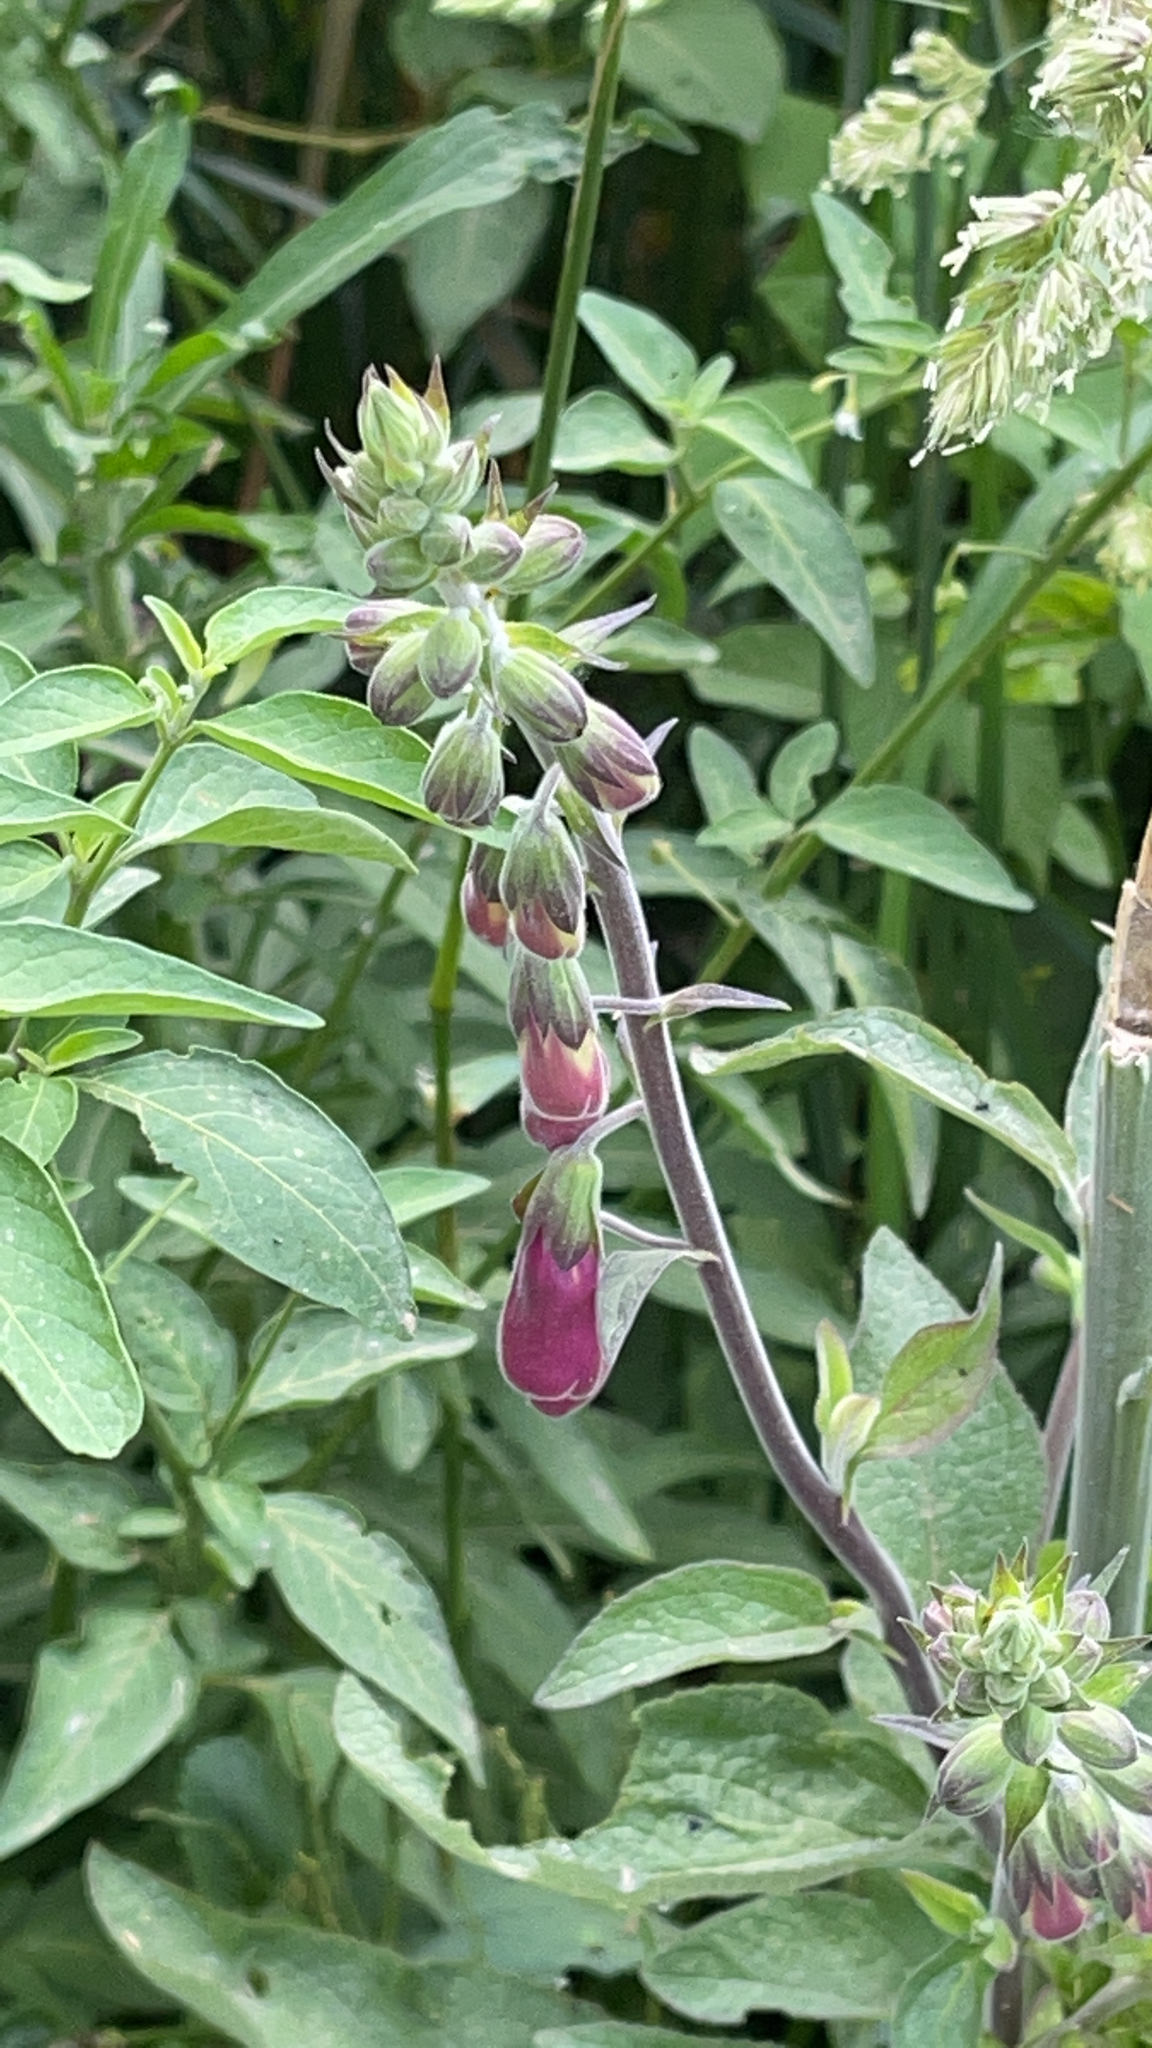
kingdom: Plantae
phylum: Tracheophyta
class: Magnoliopsida
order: Lamiales
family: Plantaginaceae
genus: Digitalis
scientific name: Digitalis purpurea
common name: Foxglove
